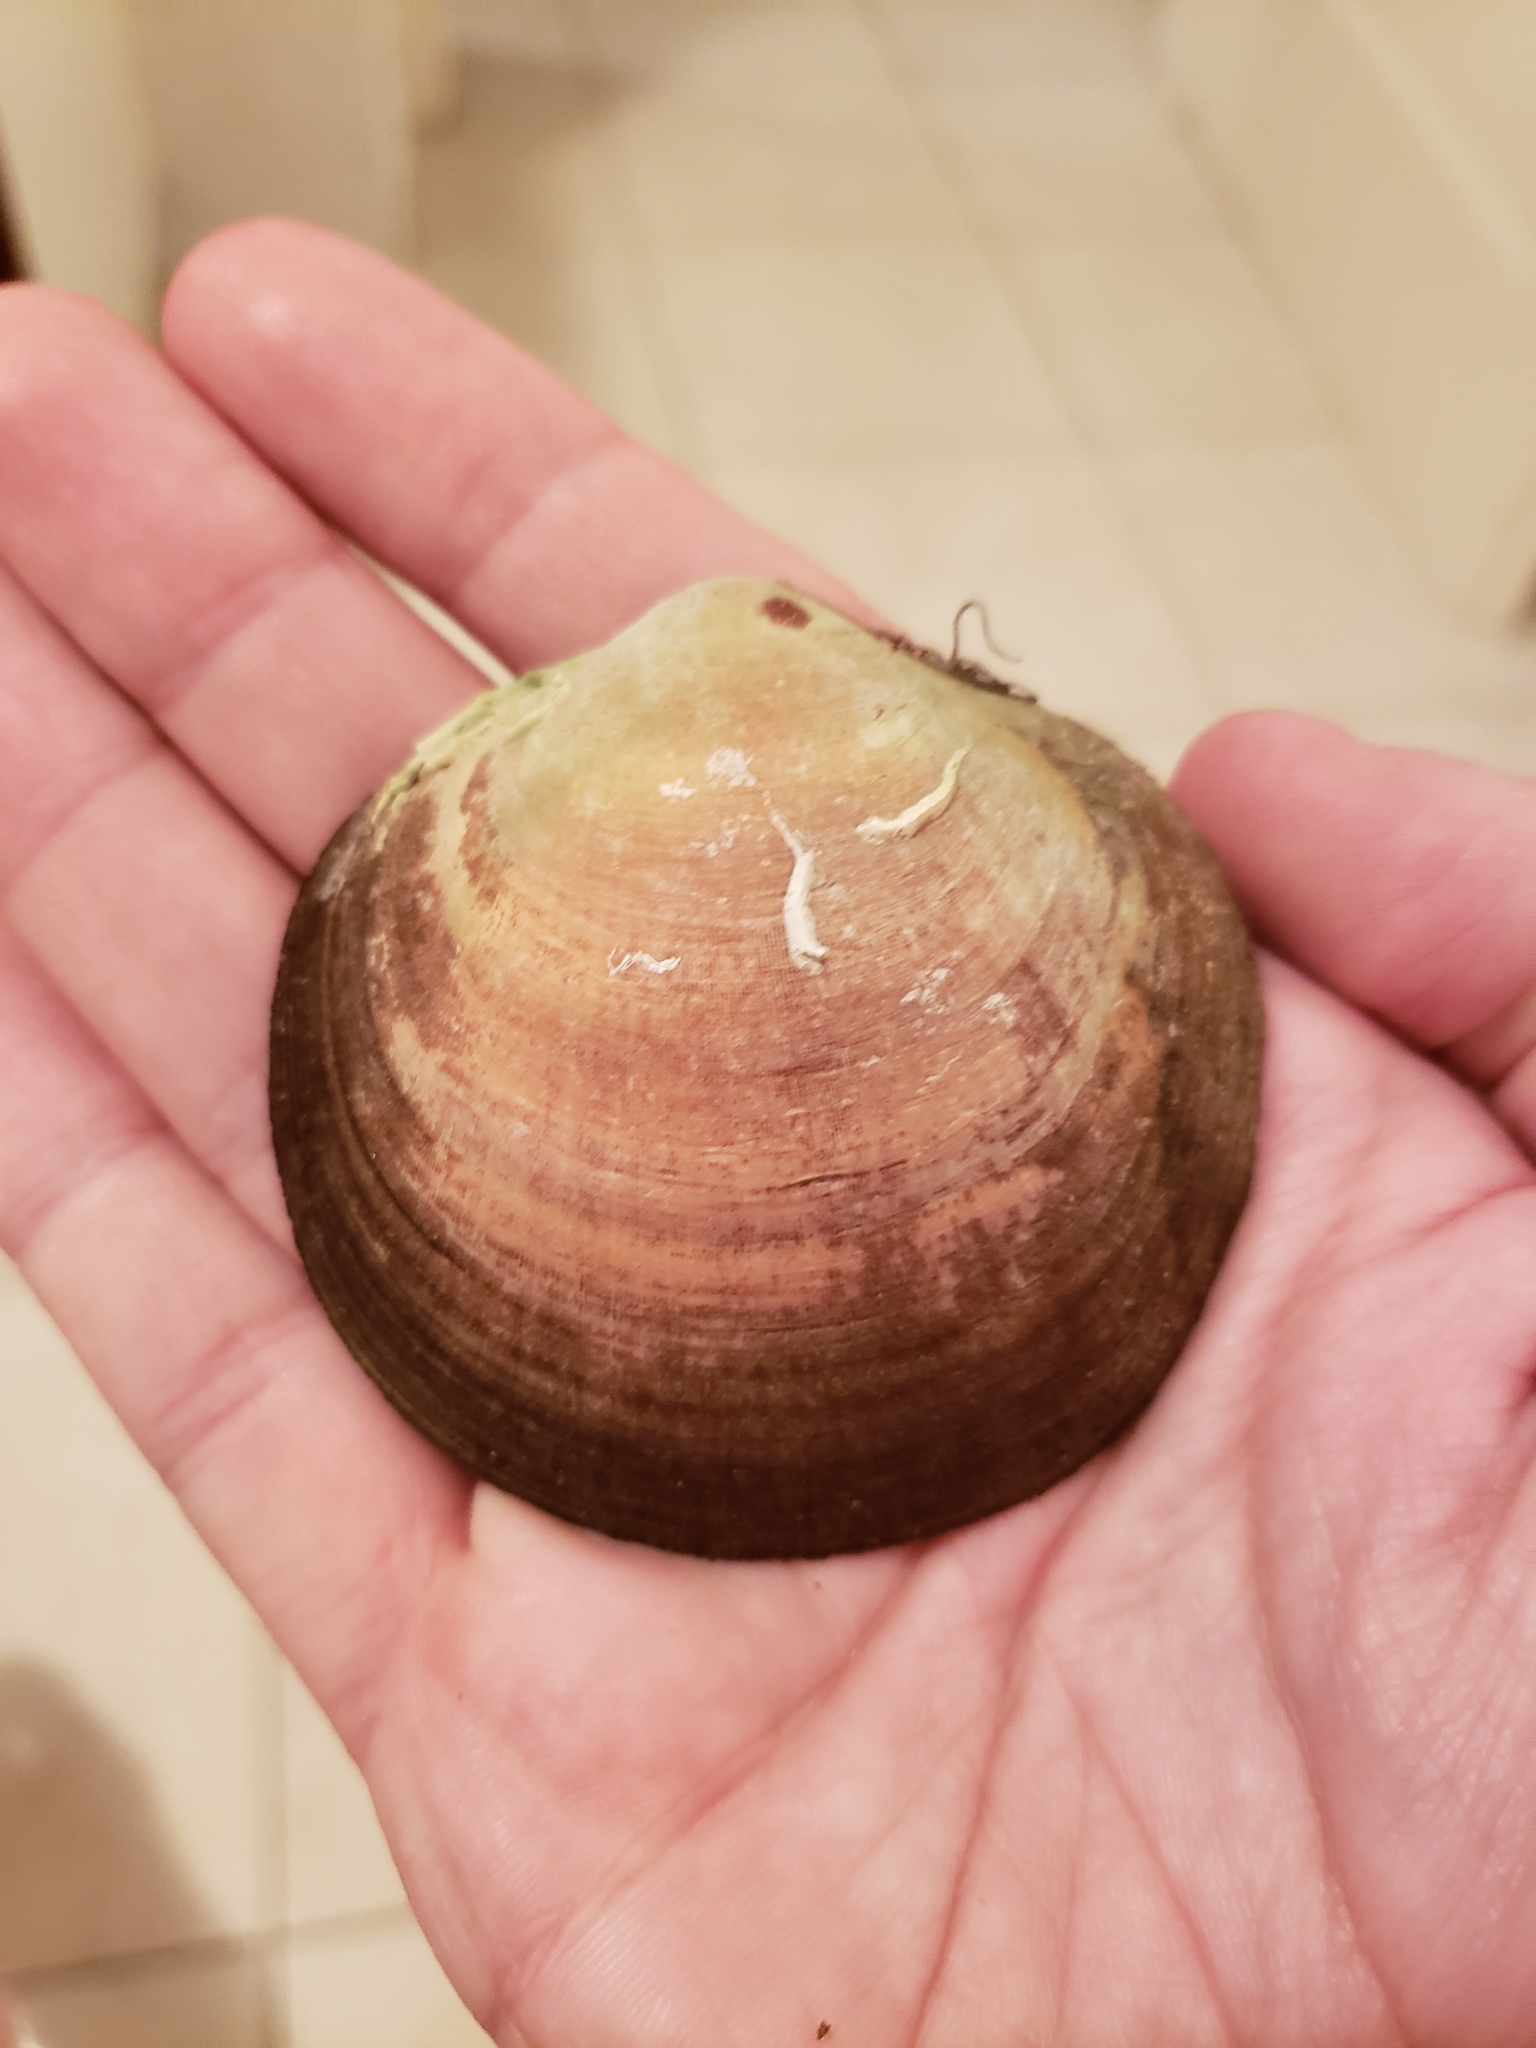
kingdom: Animalia
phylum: Mollusca
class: Bivalvia
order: Arcida
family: Glycymerididae
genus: Glycymeris
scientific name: Glycymeris bimaculata
